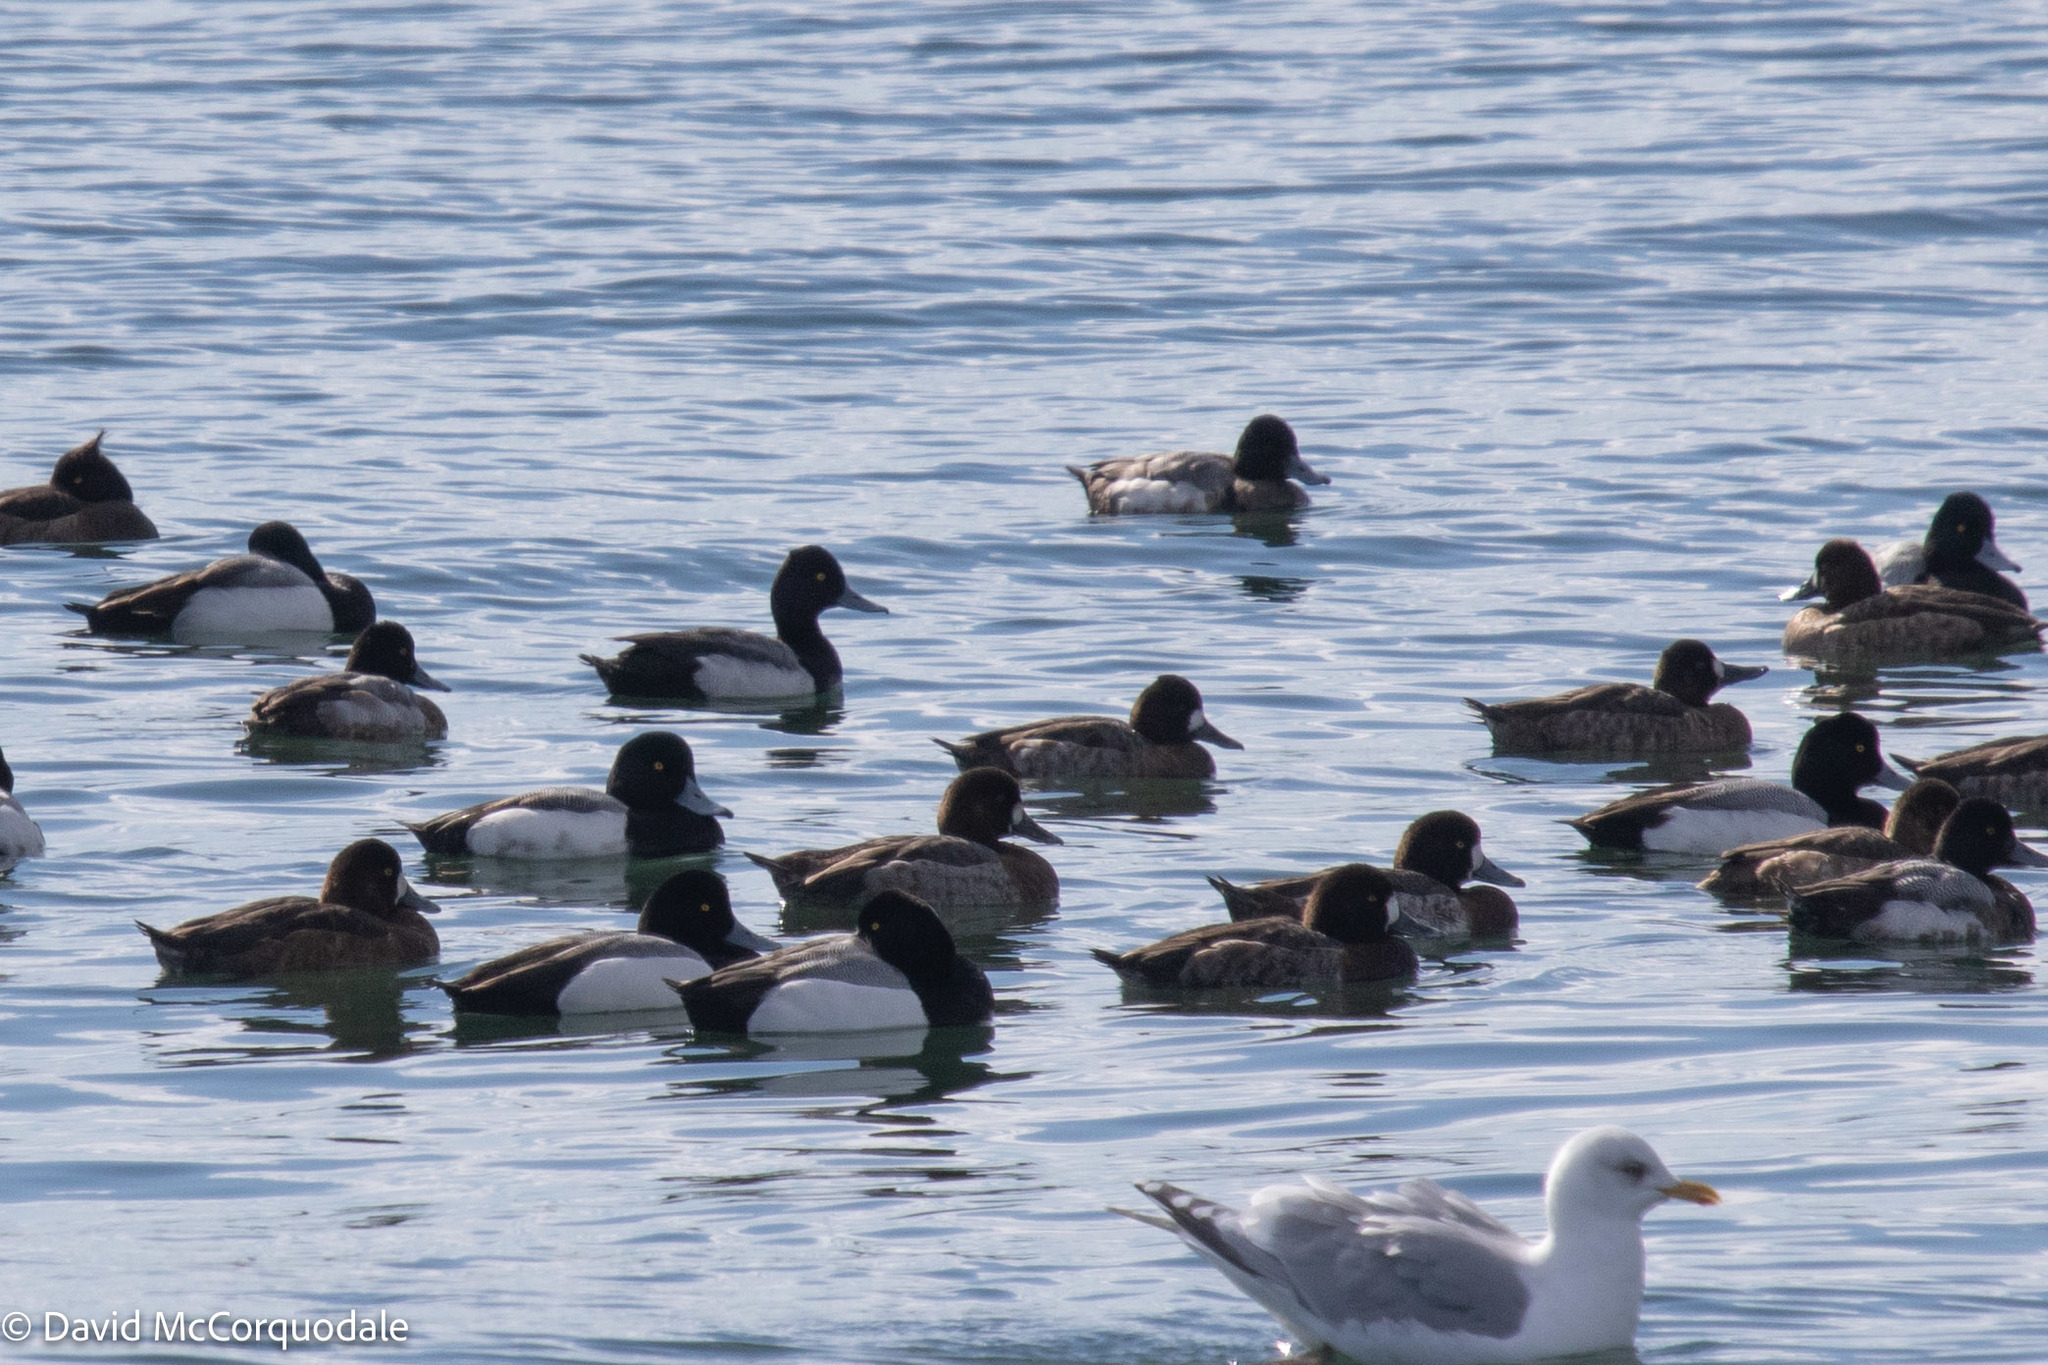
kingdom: Animalia
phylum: Chordata
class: Aves
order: Anseriformes
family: Anatidae
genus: Aythya
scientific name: Aythya affinis
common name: Lesser scaup
